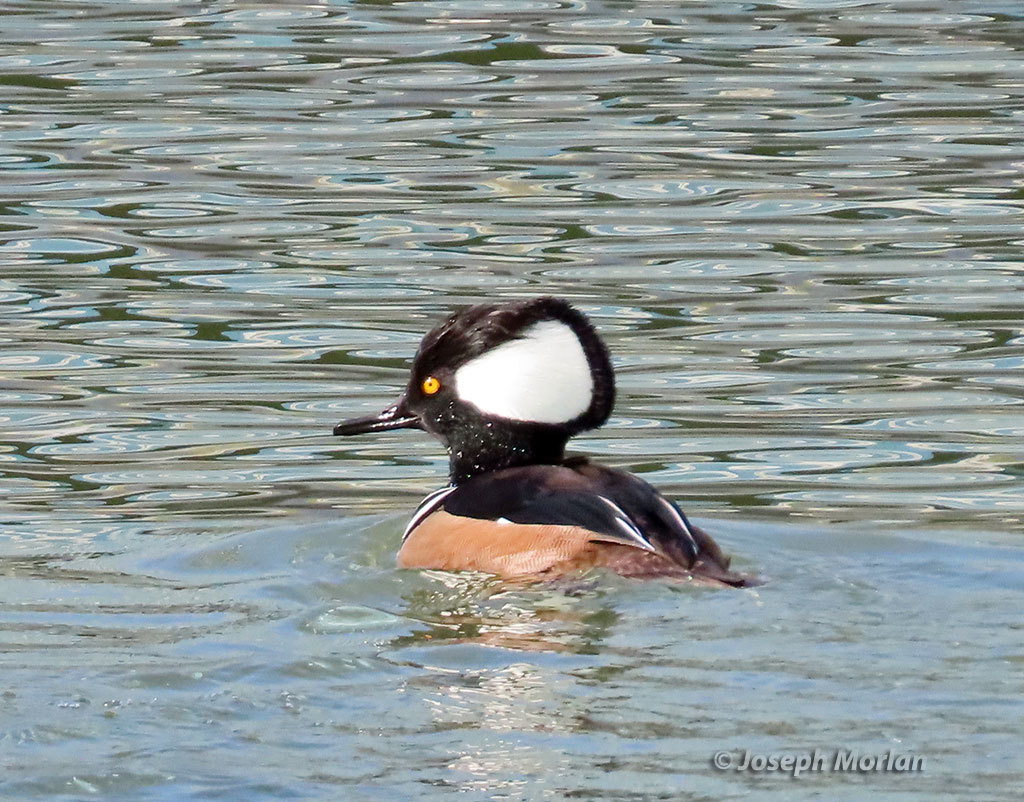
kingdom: Animalia
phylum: Chordata
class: Aves
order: Anseriformes
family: Anatidae
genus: Lophodytes
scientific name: Lophodytes cucullatus
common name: Hooded merganser
